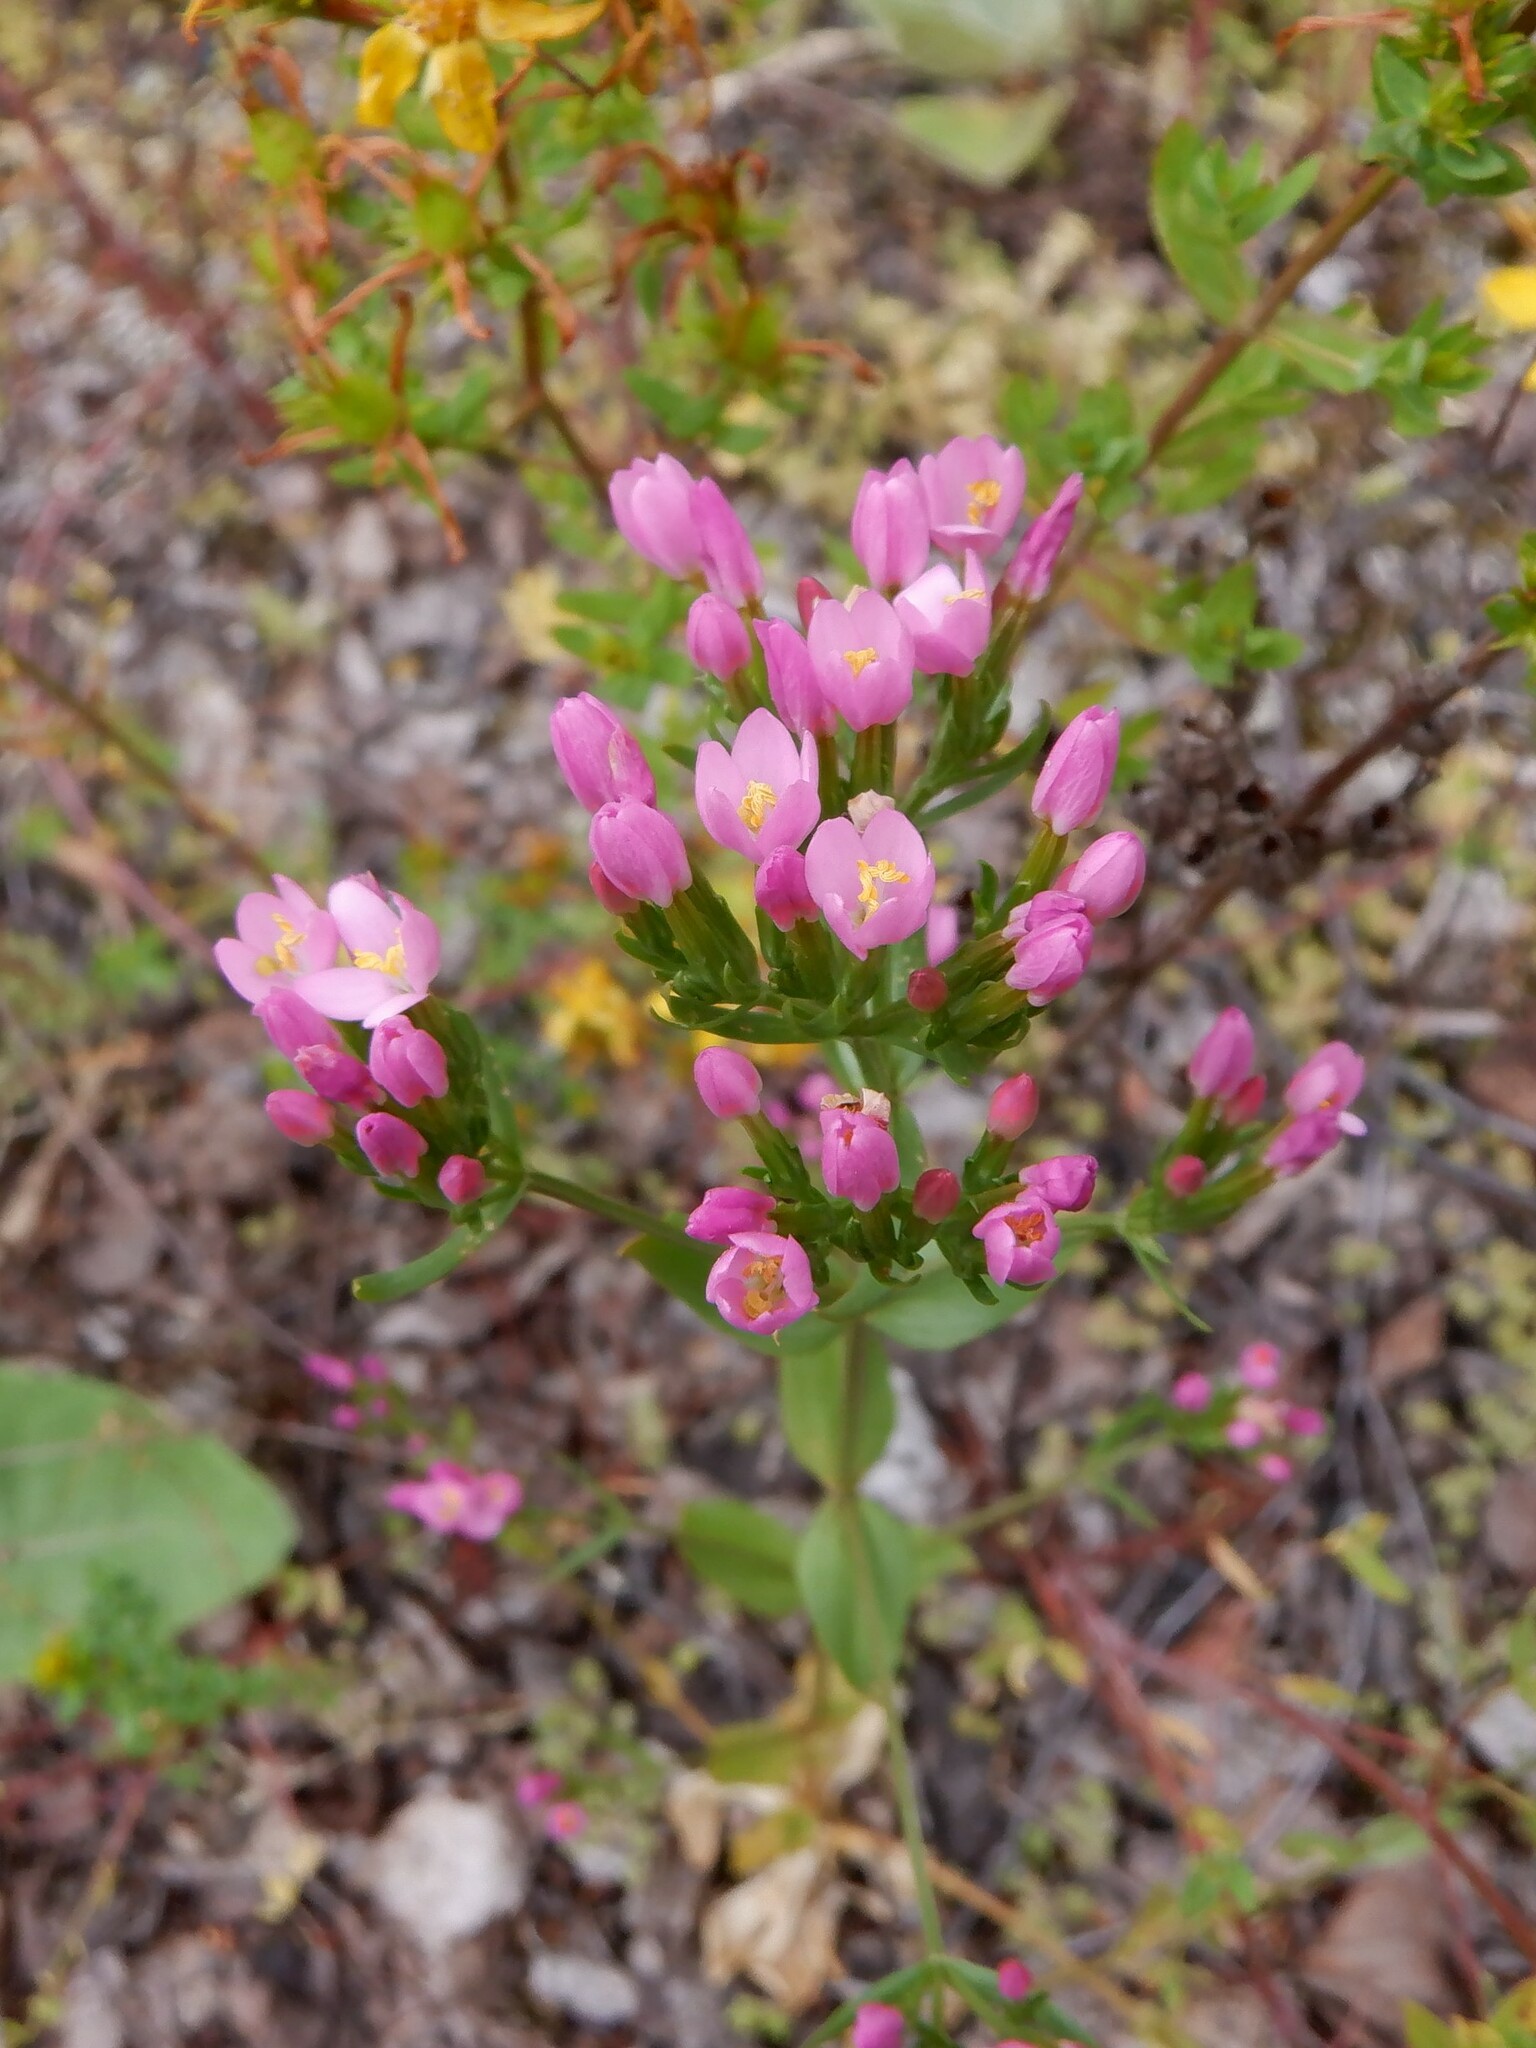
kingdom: Plantae
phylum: Tracheophyta
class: Magnoliopsida
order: Gentianales
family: Gentianaceae
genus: Centaurium
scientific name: Centaurium erythraea
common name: Common centaury
